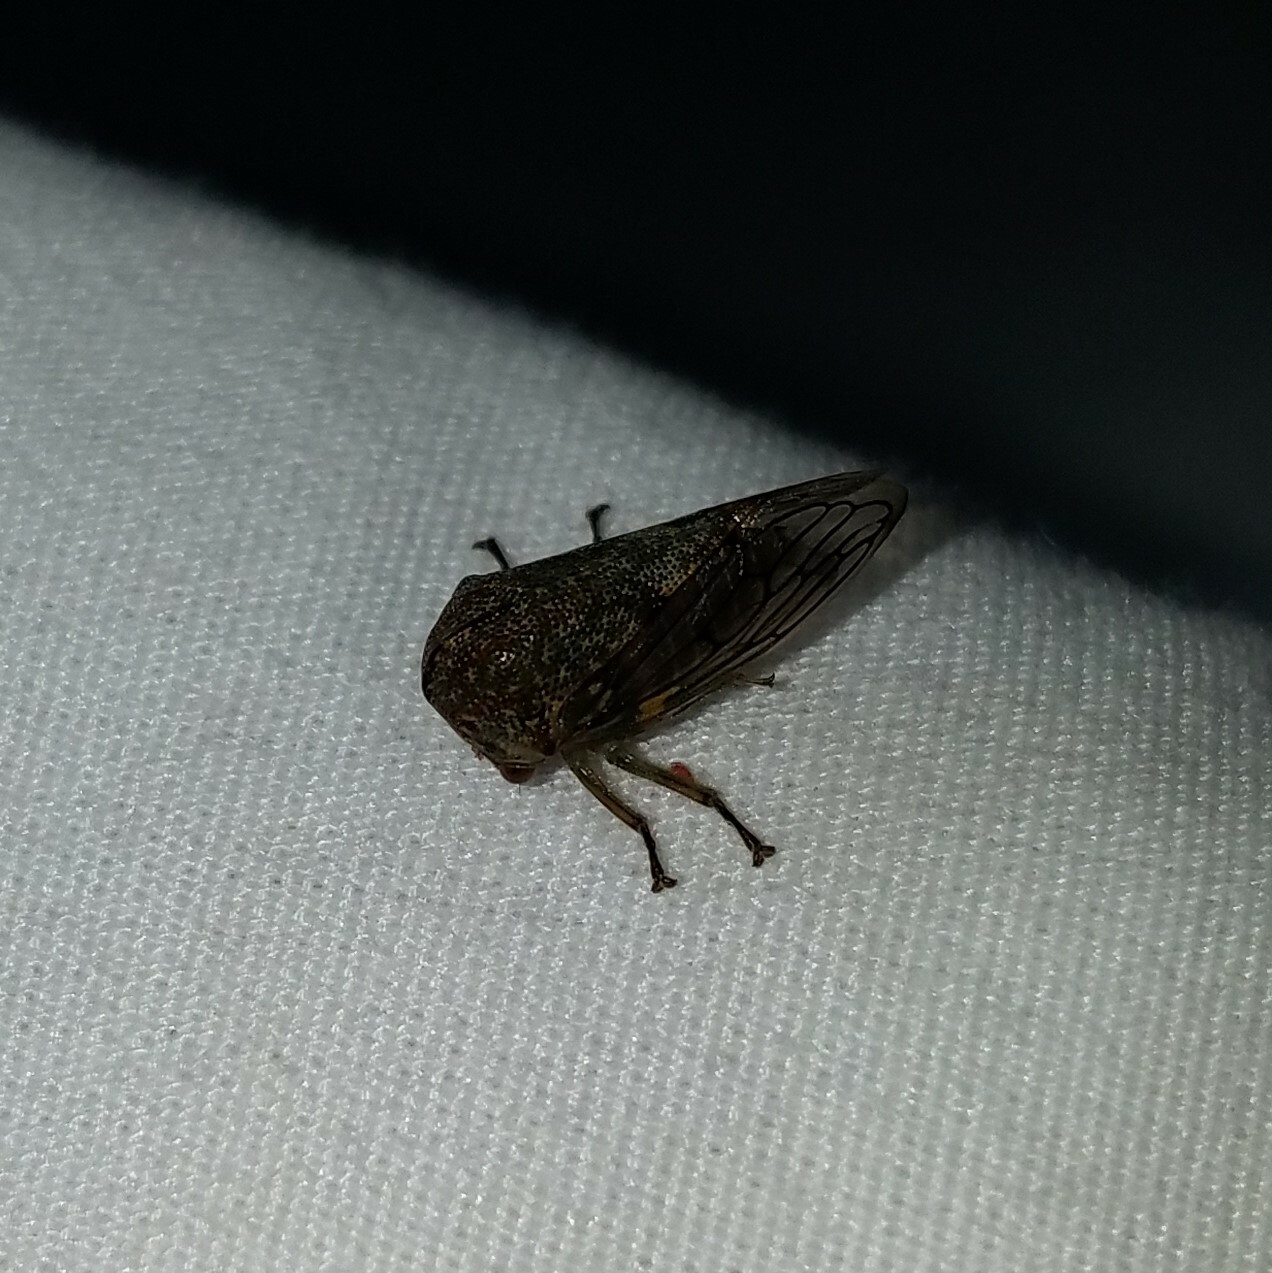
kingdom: Animalia
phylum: Arthropoda
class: Insecta
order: Hemiptera
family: Membracidae
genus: Platycotis
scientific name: Platycotis vittatus
